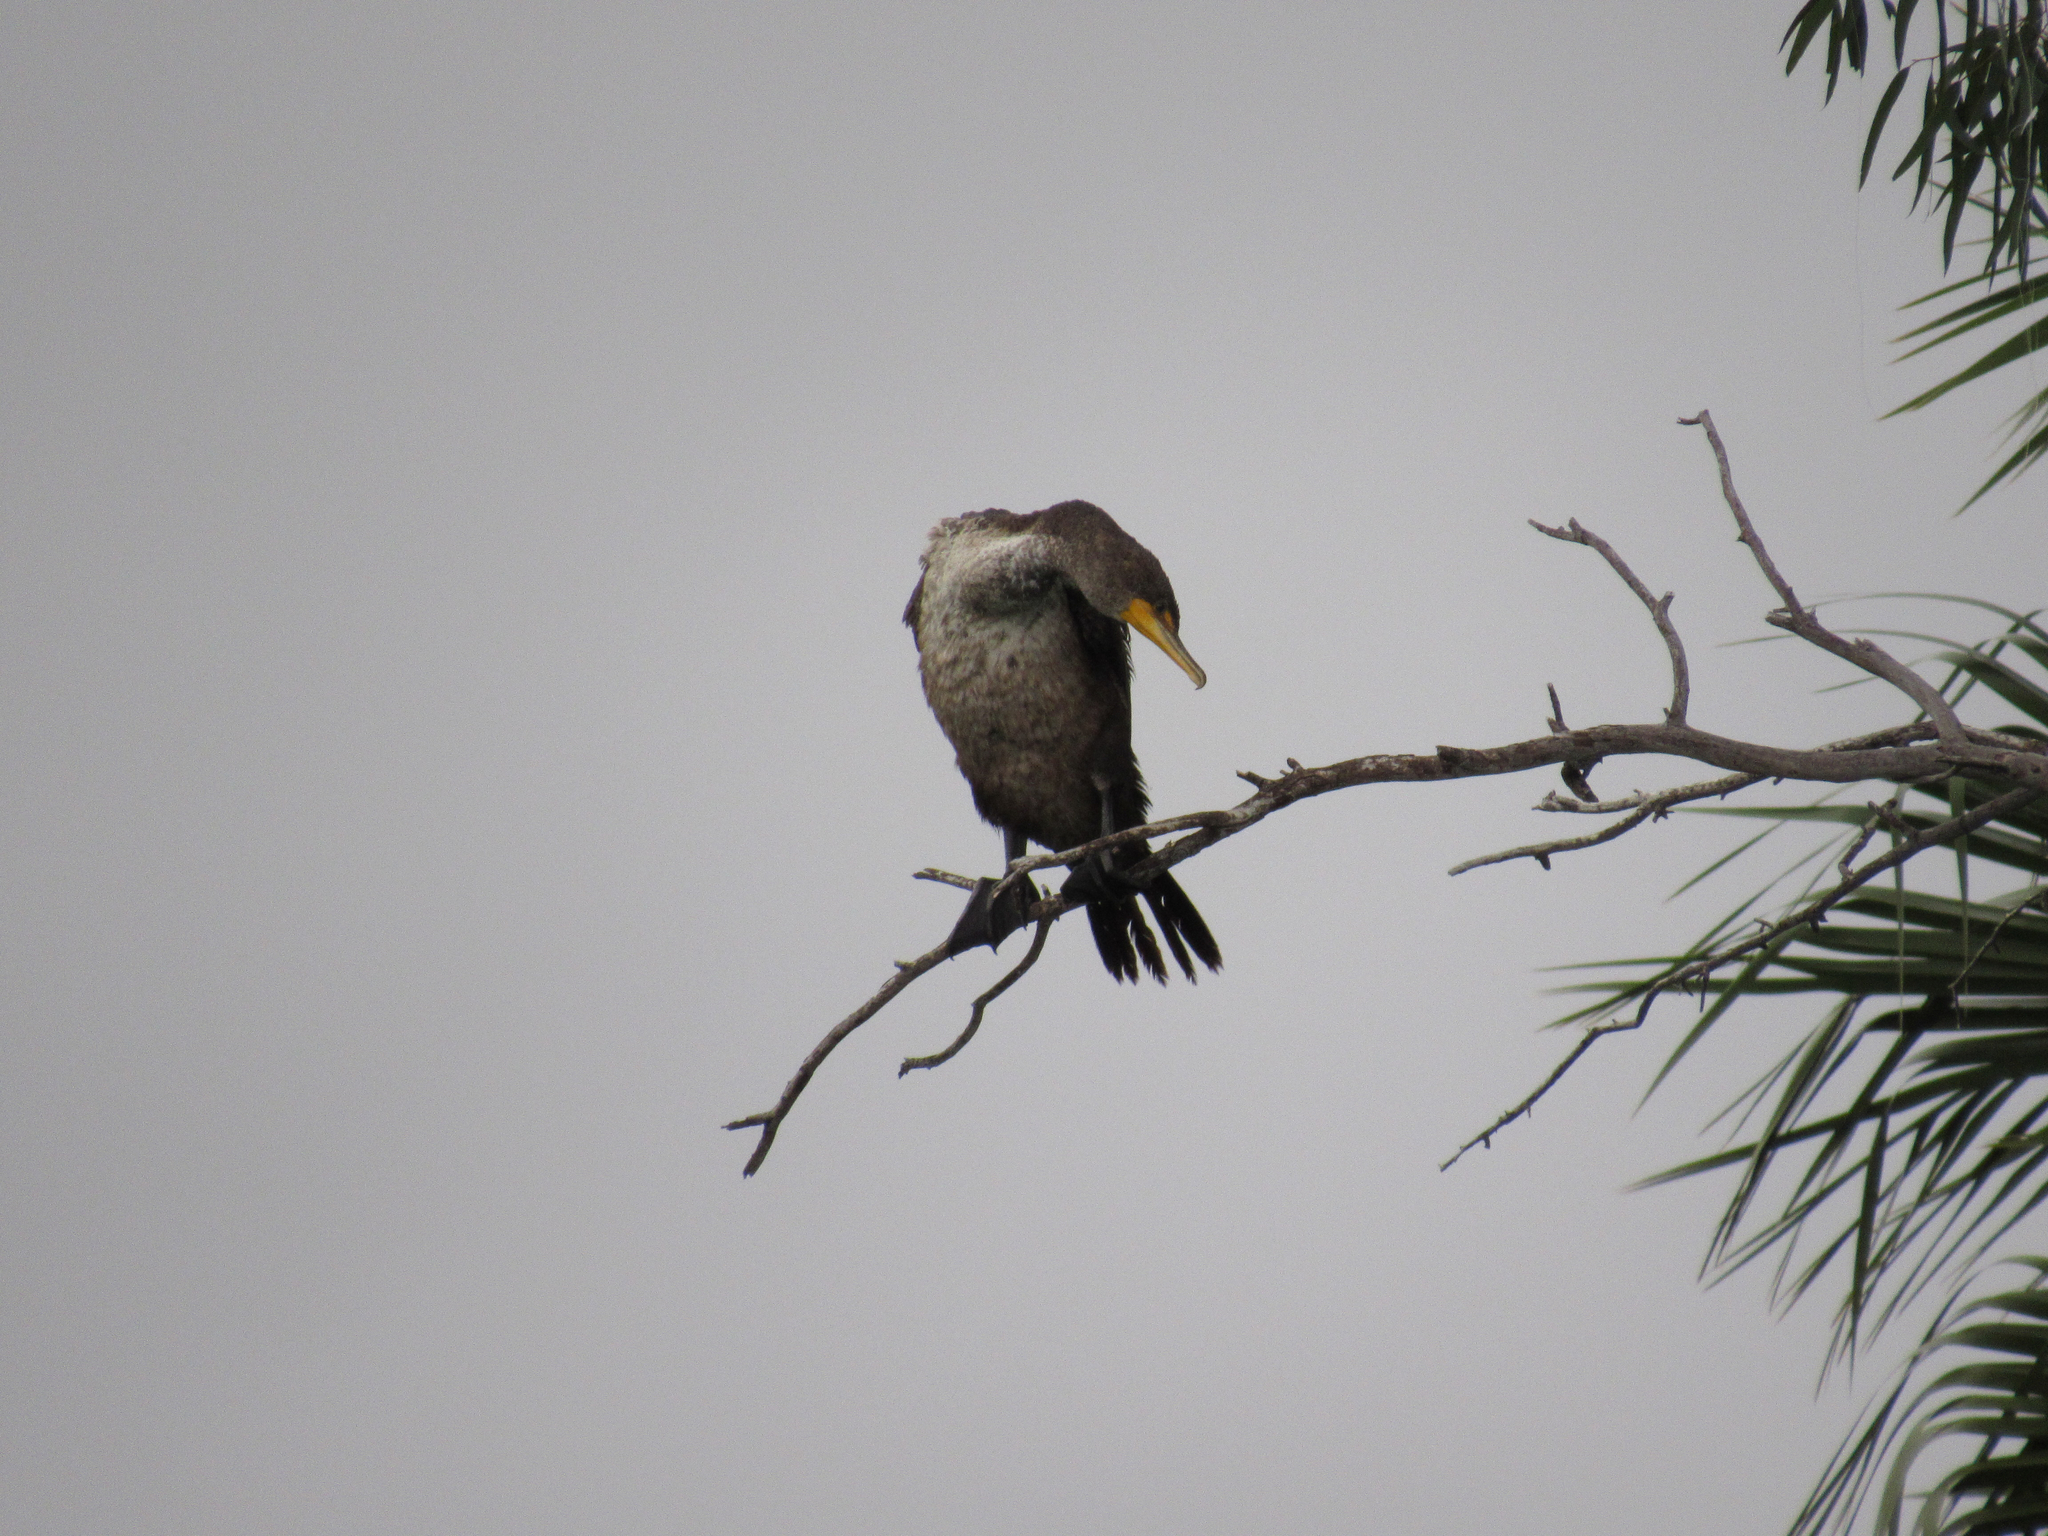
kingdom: Animalia
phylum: Chordata
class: Aves
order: Suliformes
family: Phalacrocoracidae
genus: Phalacrocorax
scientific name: Phalacrocorax auritus
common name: Double-crested cormorant
